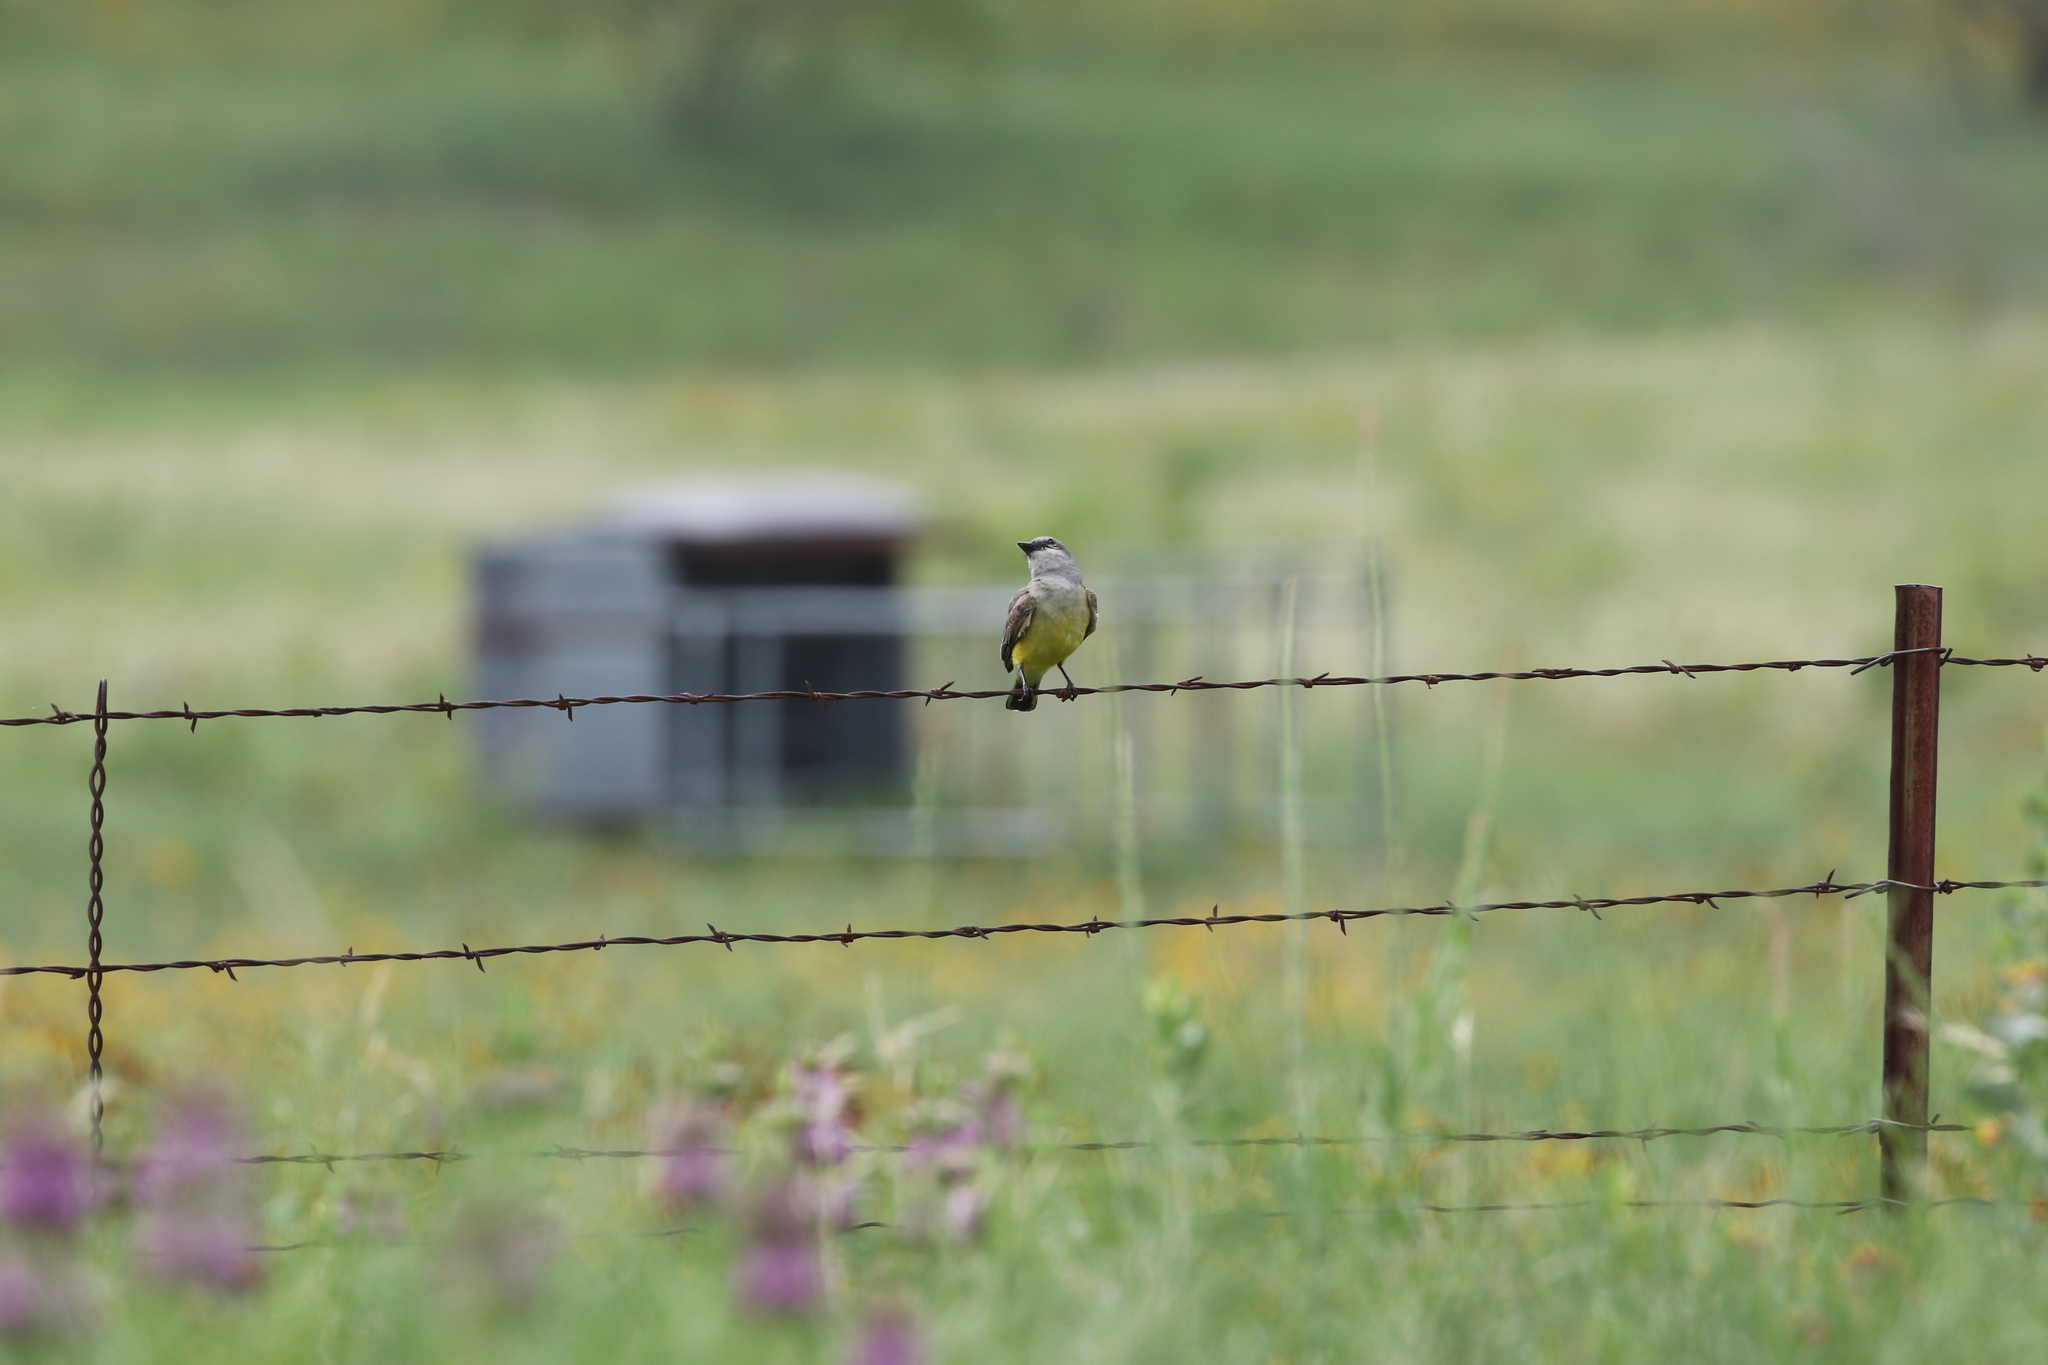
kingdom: Animalia
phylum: Chordata
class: Aves
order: Passeriformes
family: Tyrannidae
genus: Tyrannus
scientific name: Tyrannus verticalis
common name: Western kingbird
